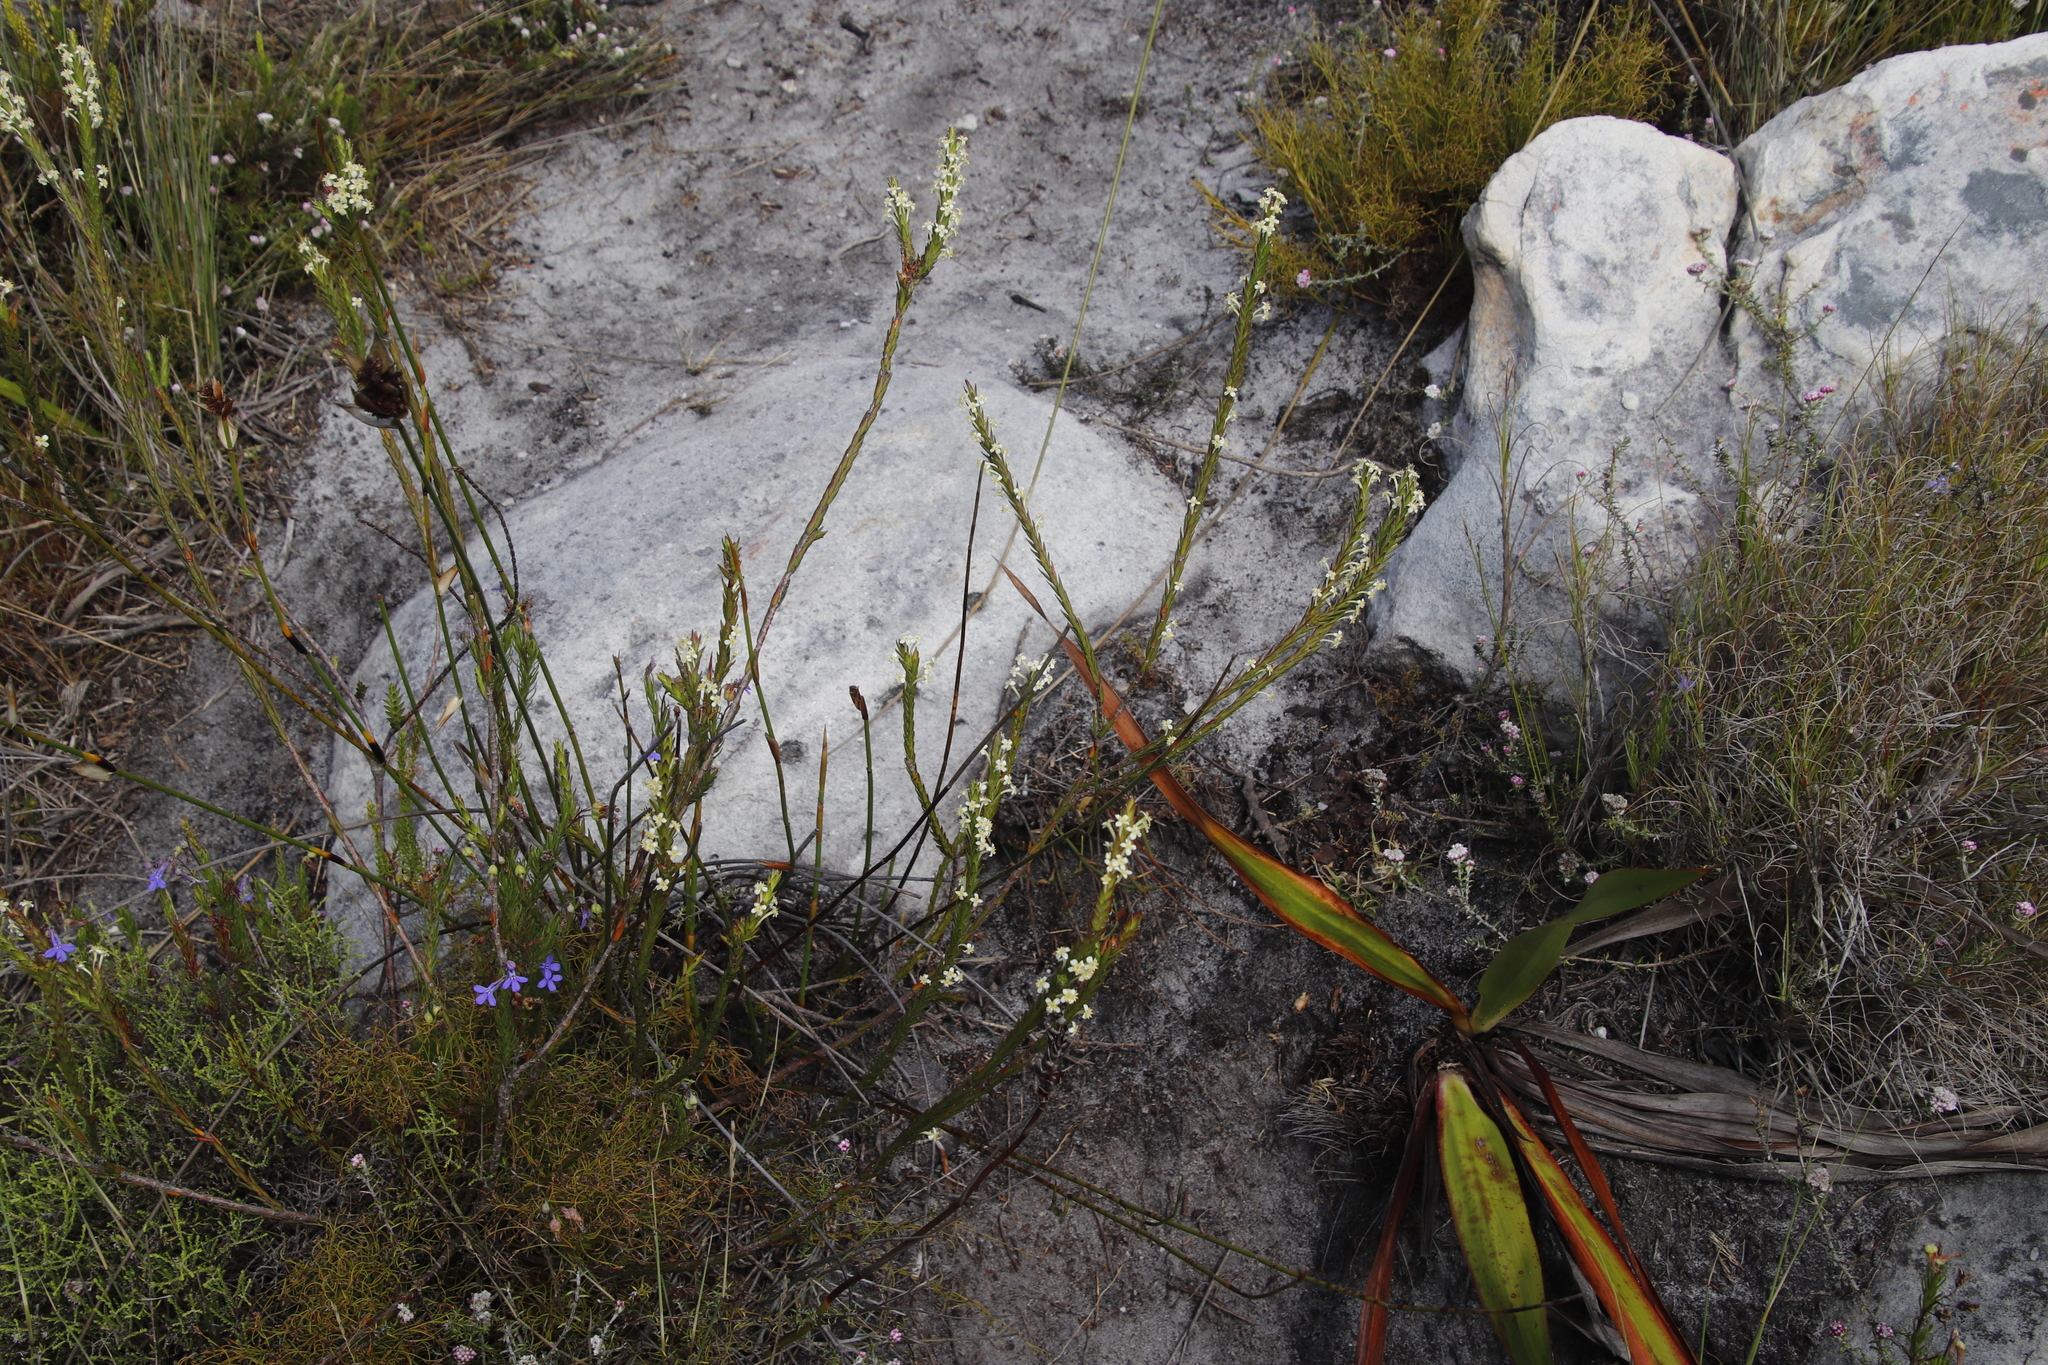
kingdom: Plantae
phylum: Tracheophyta
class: Magnoliopsida
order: Malvales
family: Thymelaeaceae
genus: Struthiola
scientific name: Struthiola ciliata
